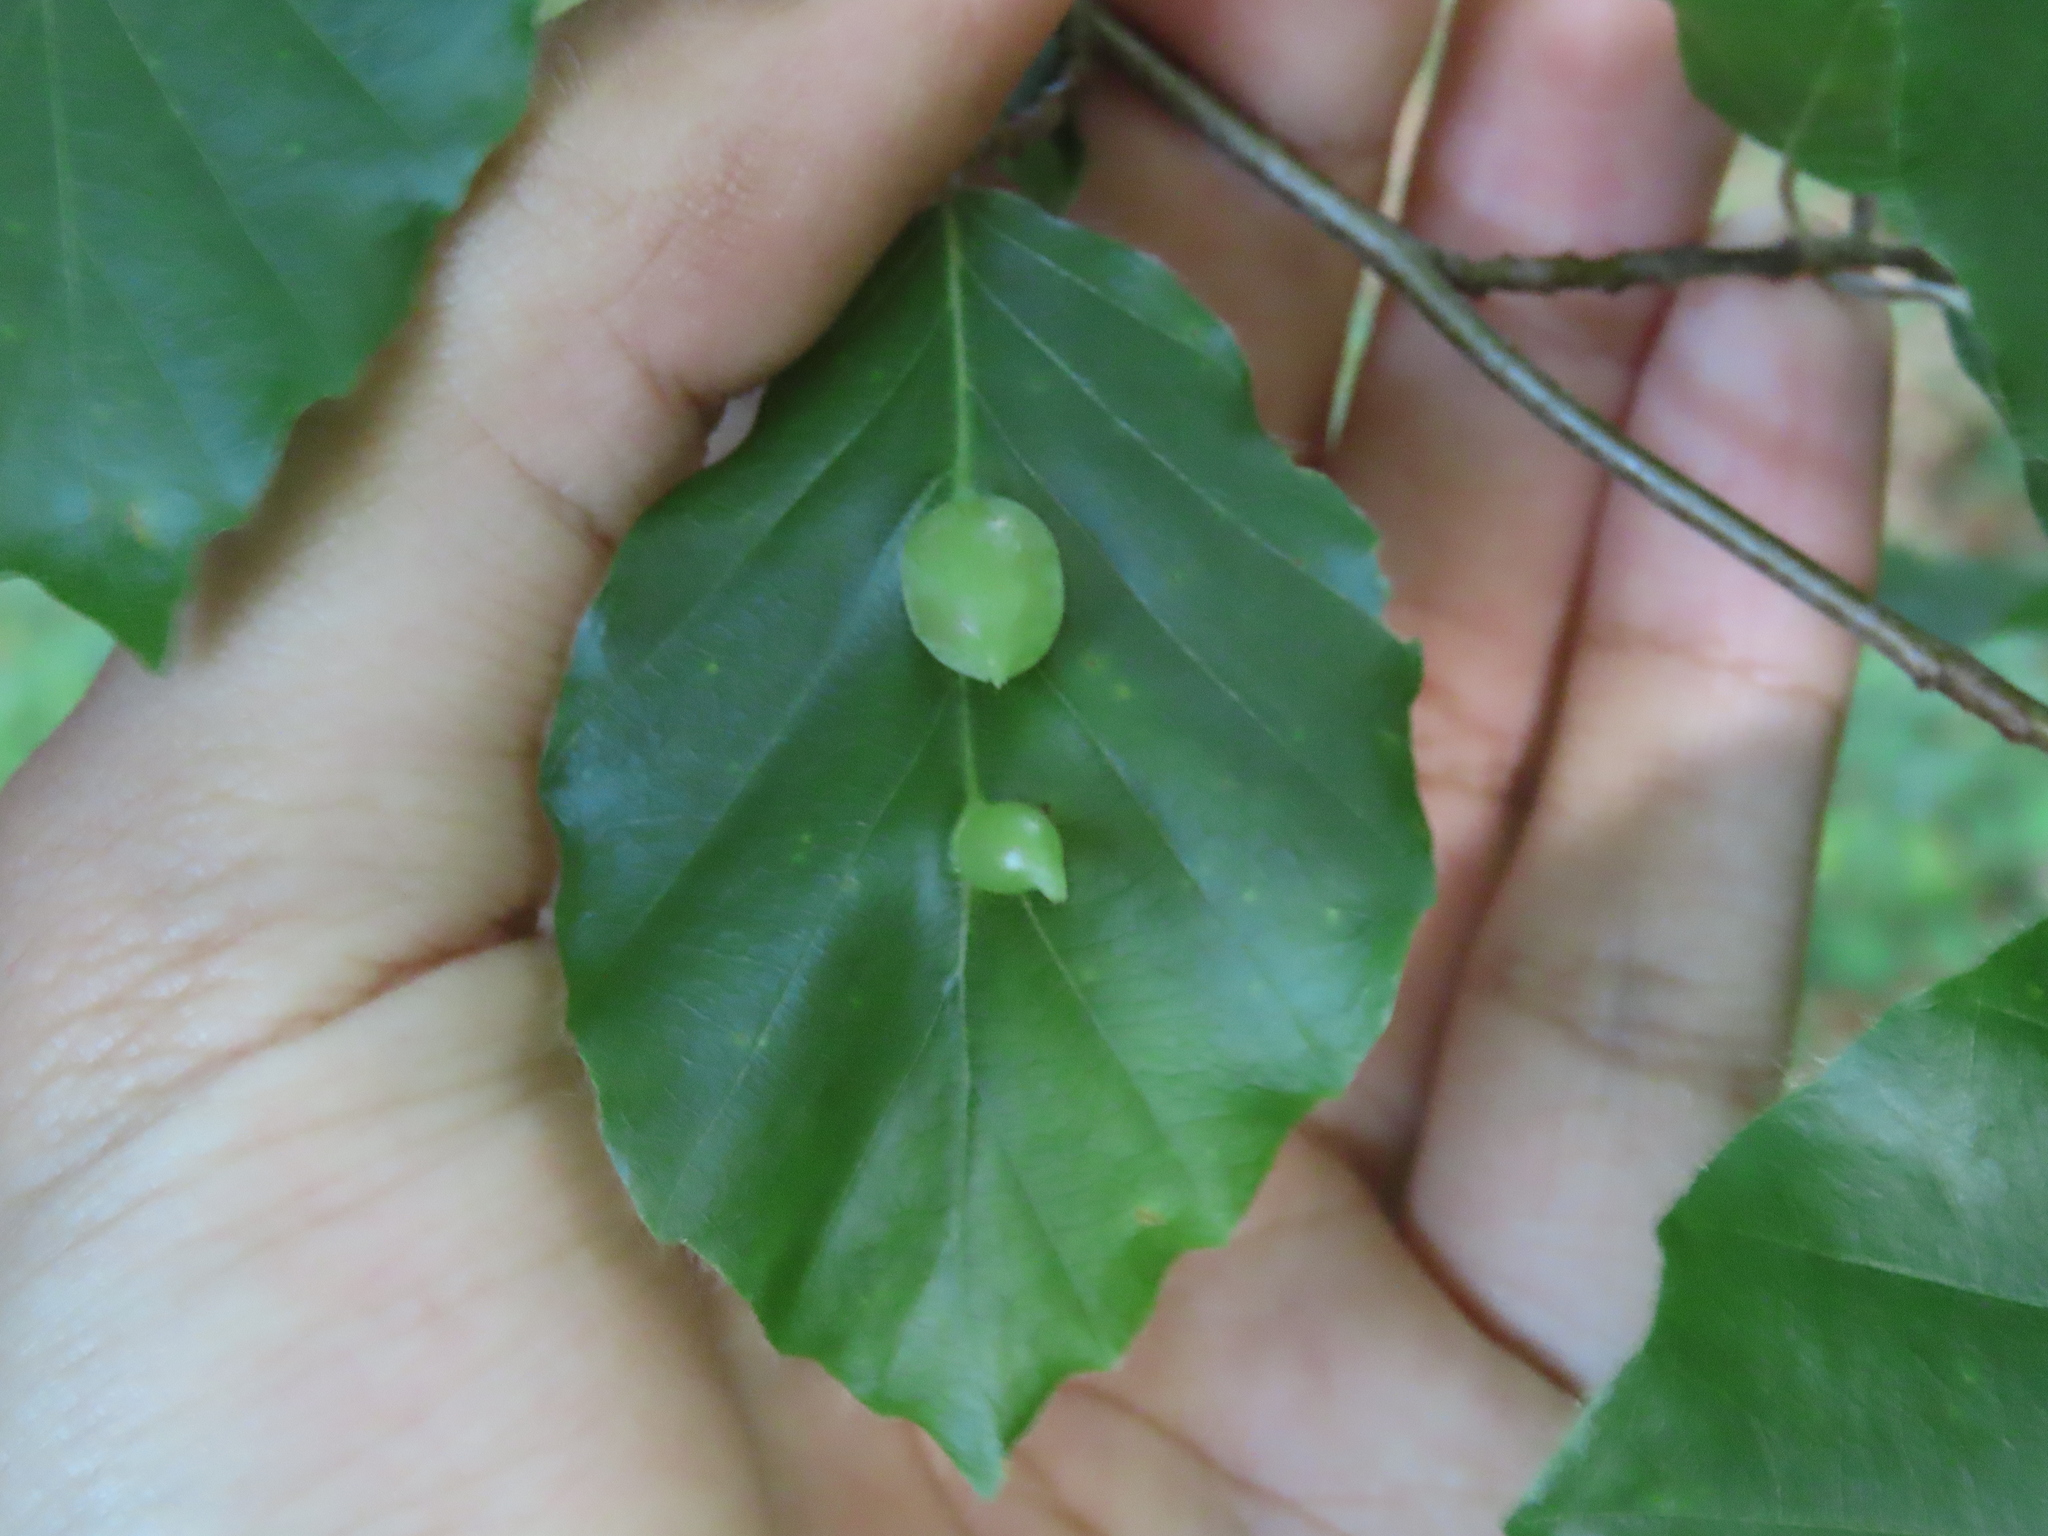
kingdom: Animalia
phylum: Arthropoda
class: Insecta
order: Diptera
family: Cecidomyiidae
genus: Mikiola
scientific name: Mikiola fagi
